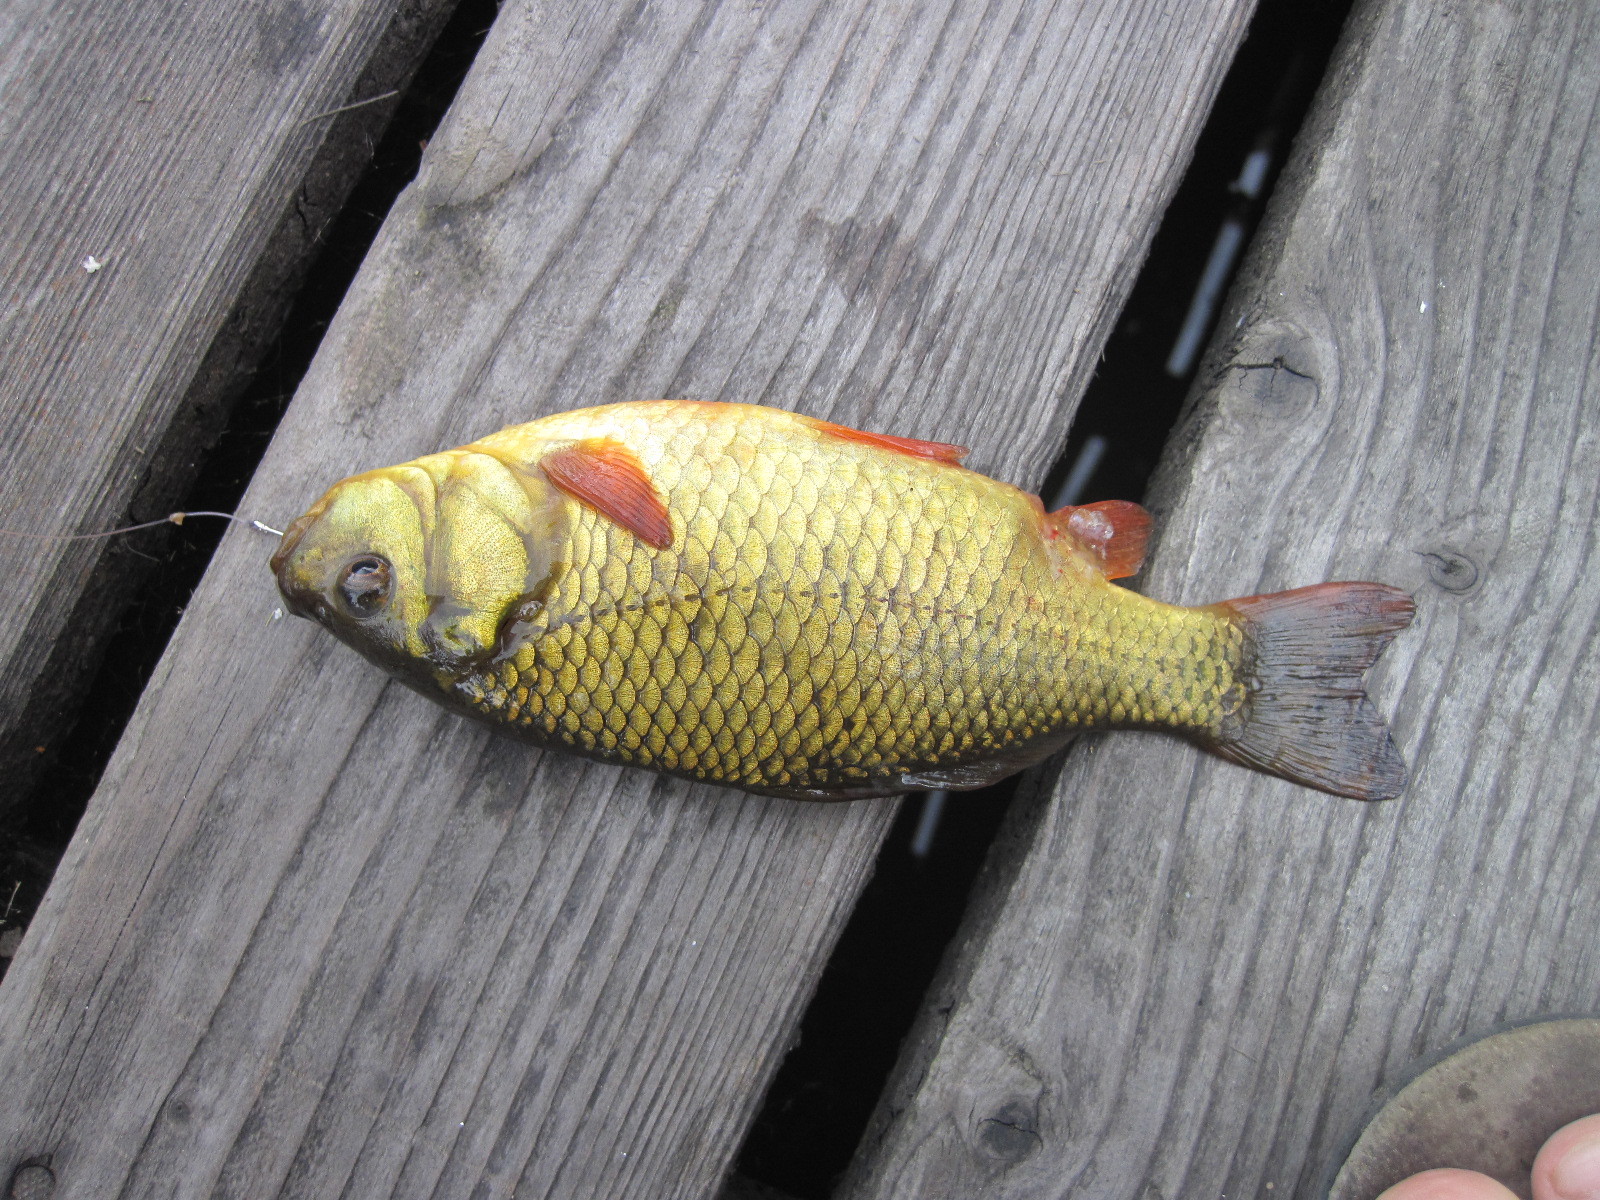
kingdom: Animalia
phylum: Chordata
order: Cypriniformes
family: Cyprinidae
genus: Carassius
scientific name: Carassius carassius
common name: Crucian carp
